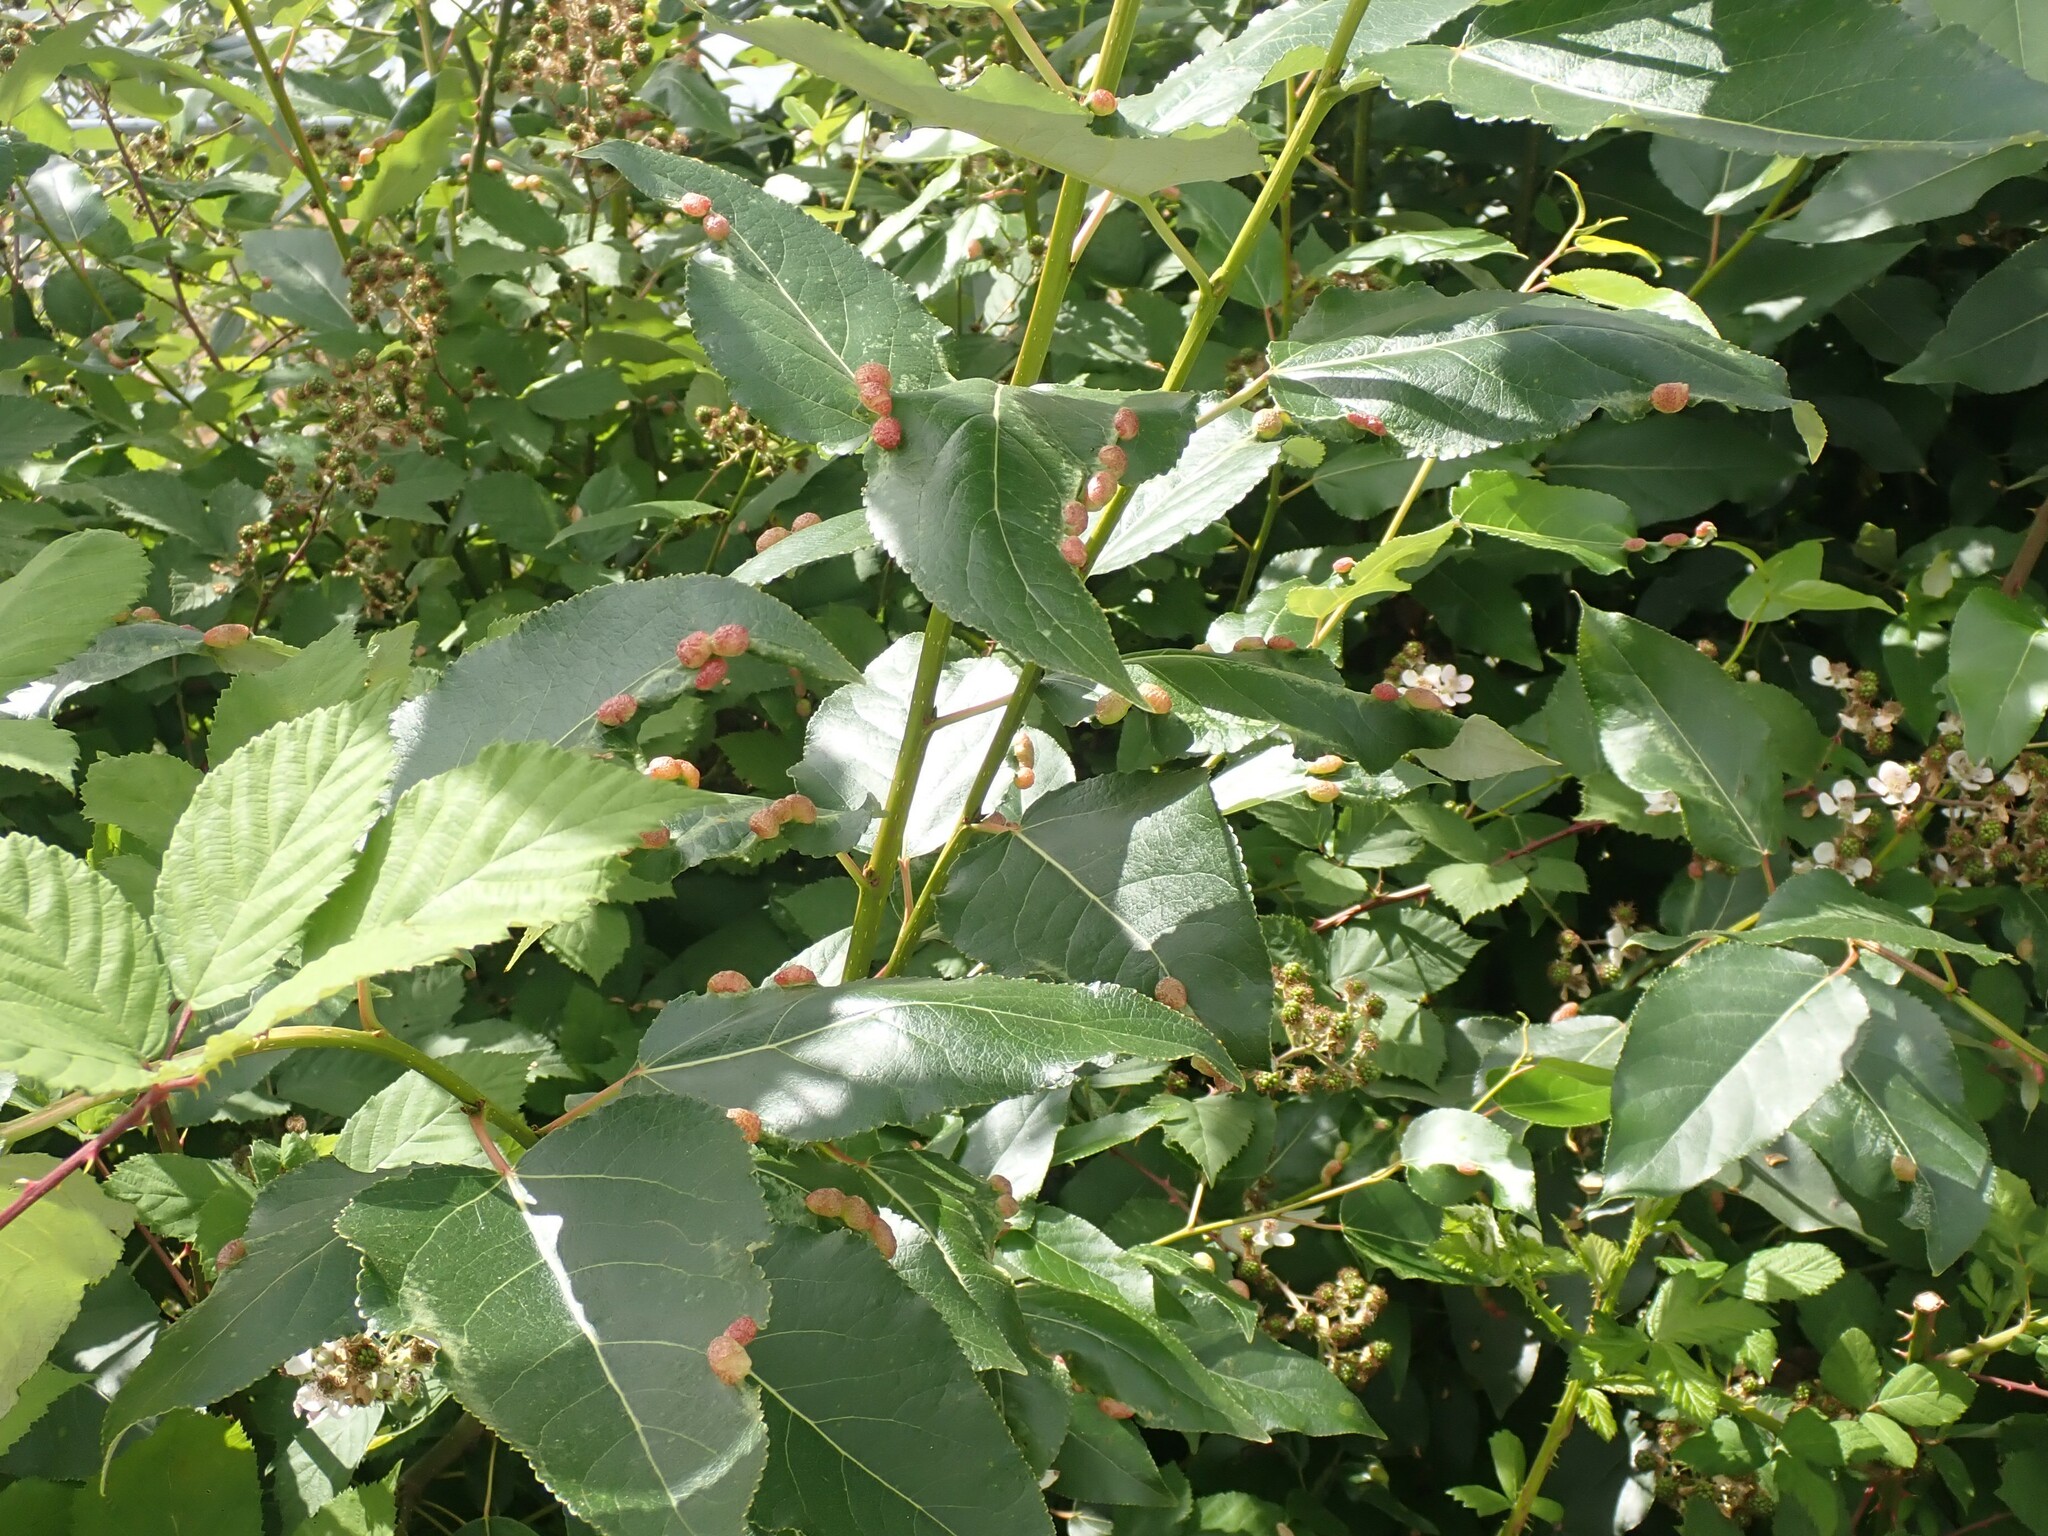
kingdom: Animalia
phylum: Arthropoda
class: Insecta
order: Hemiptera
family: Aphididae
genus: Thecabius
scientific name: Thecabius populimonilis
